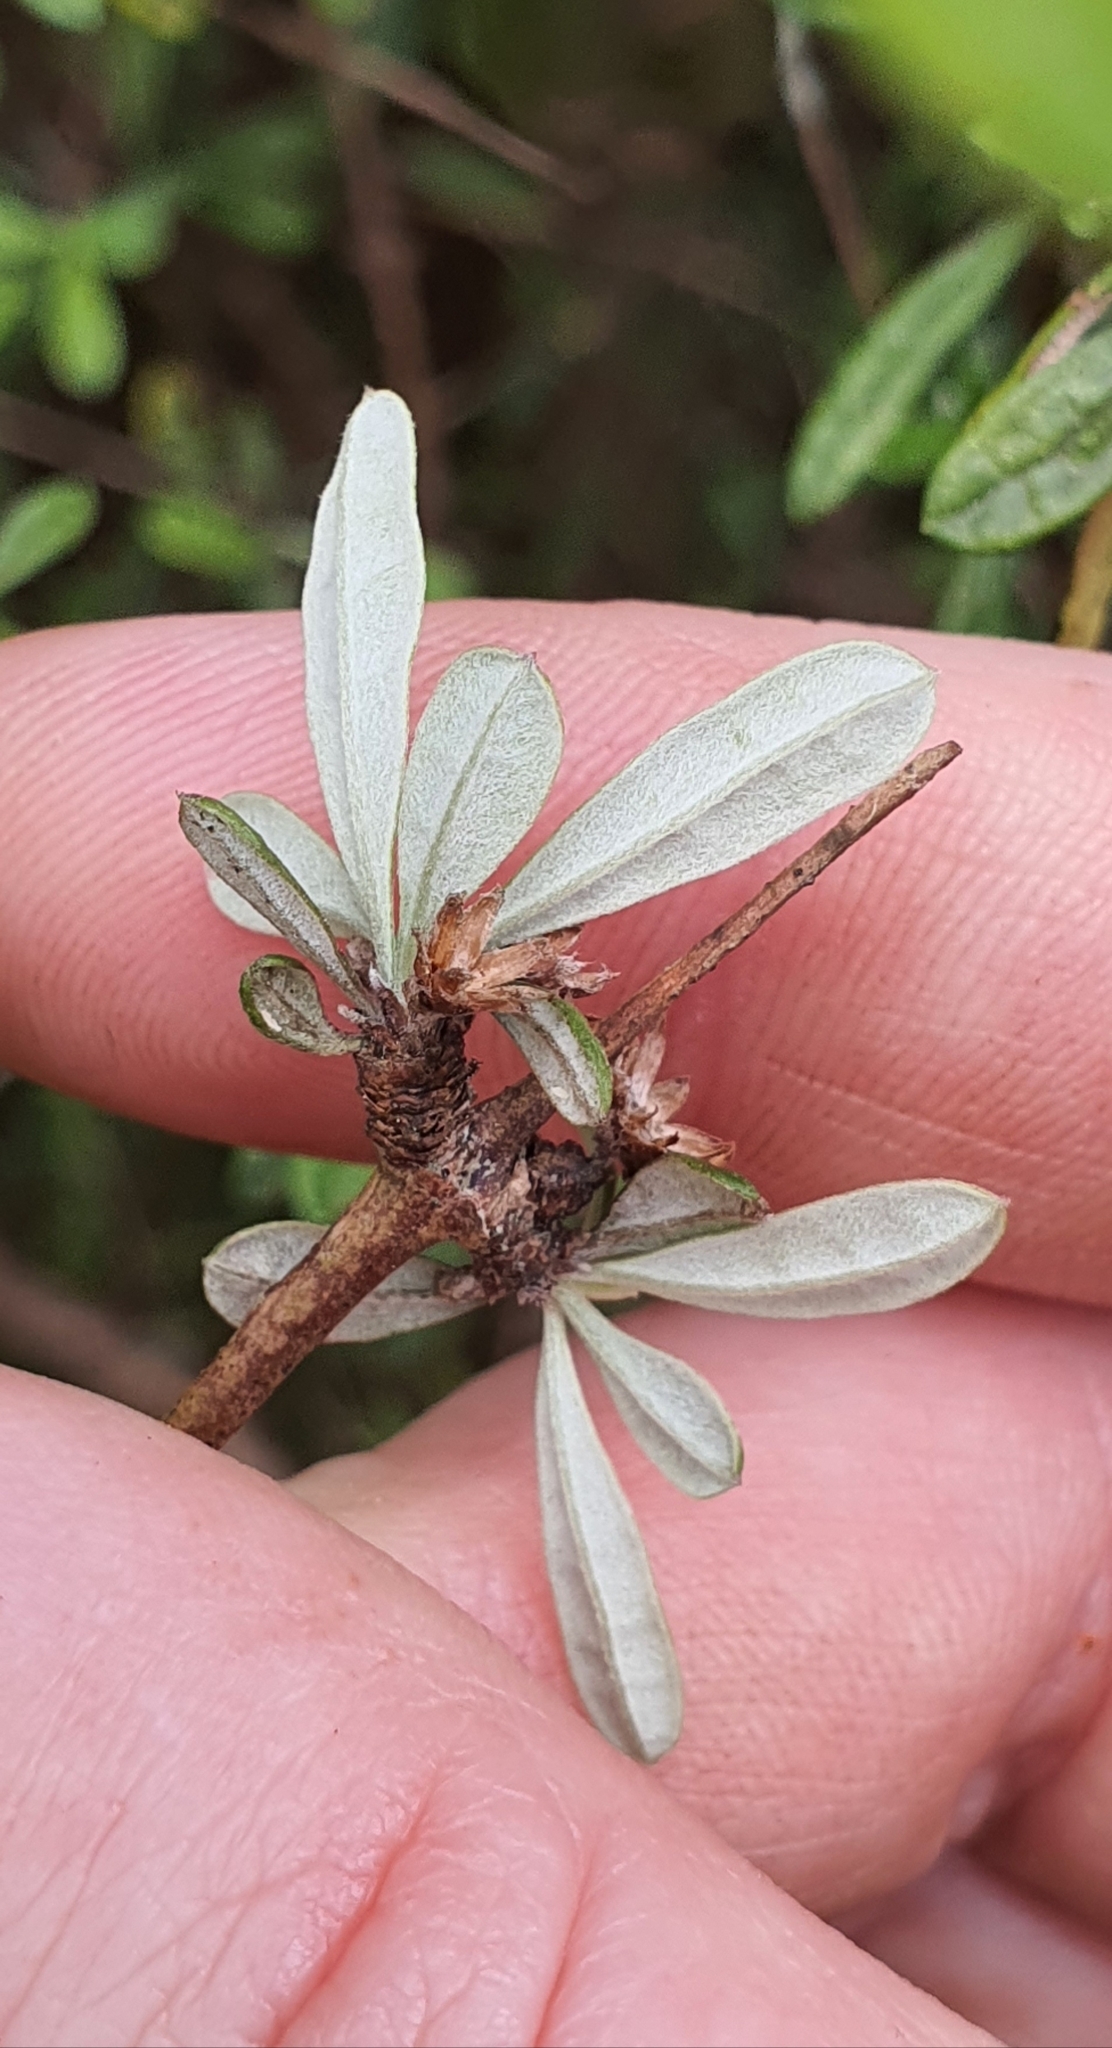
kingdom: Plantae
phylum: Tracheophyta
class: Magnoliopsida
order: Asterales
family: Asteraceae
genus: Olearia
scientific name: Olearia bullata
